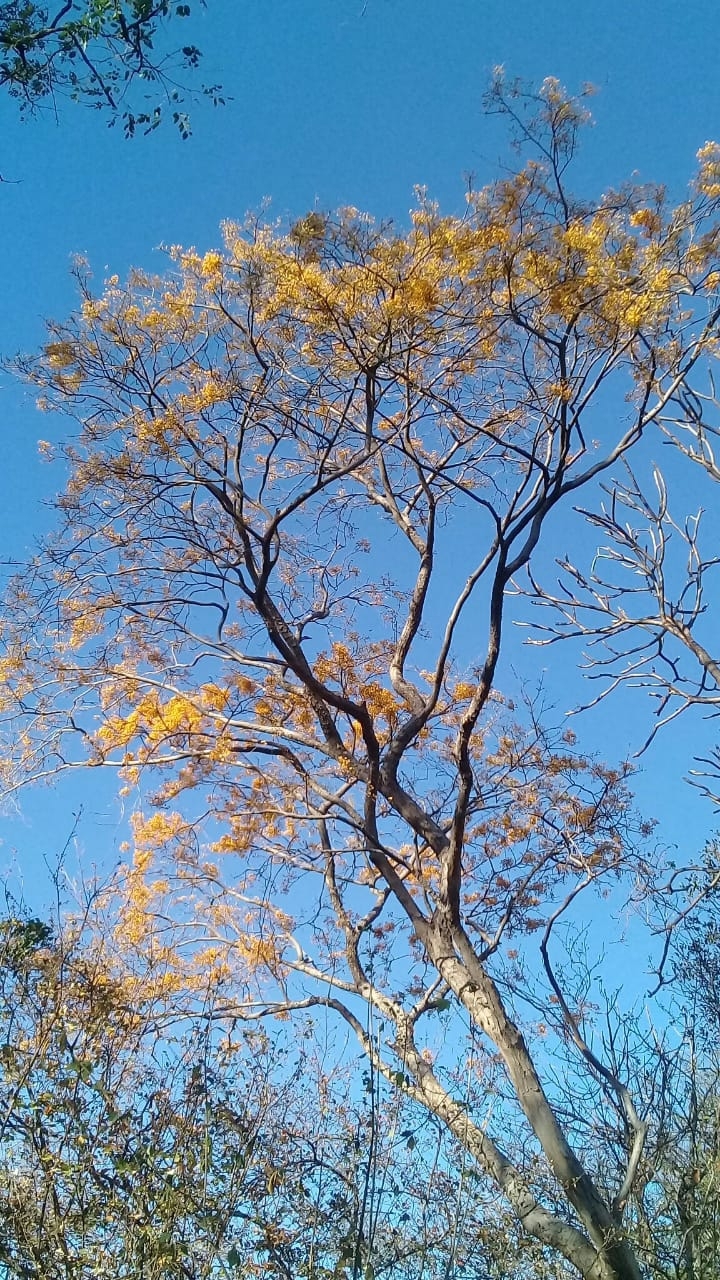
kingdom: Plantae
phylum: Tracheophyta
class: Magnoliopsida
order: Fabales
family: Fabaceae
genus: Pterocarpus
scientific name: Pterocarpus rohrii
